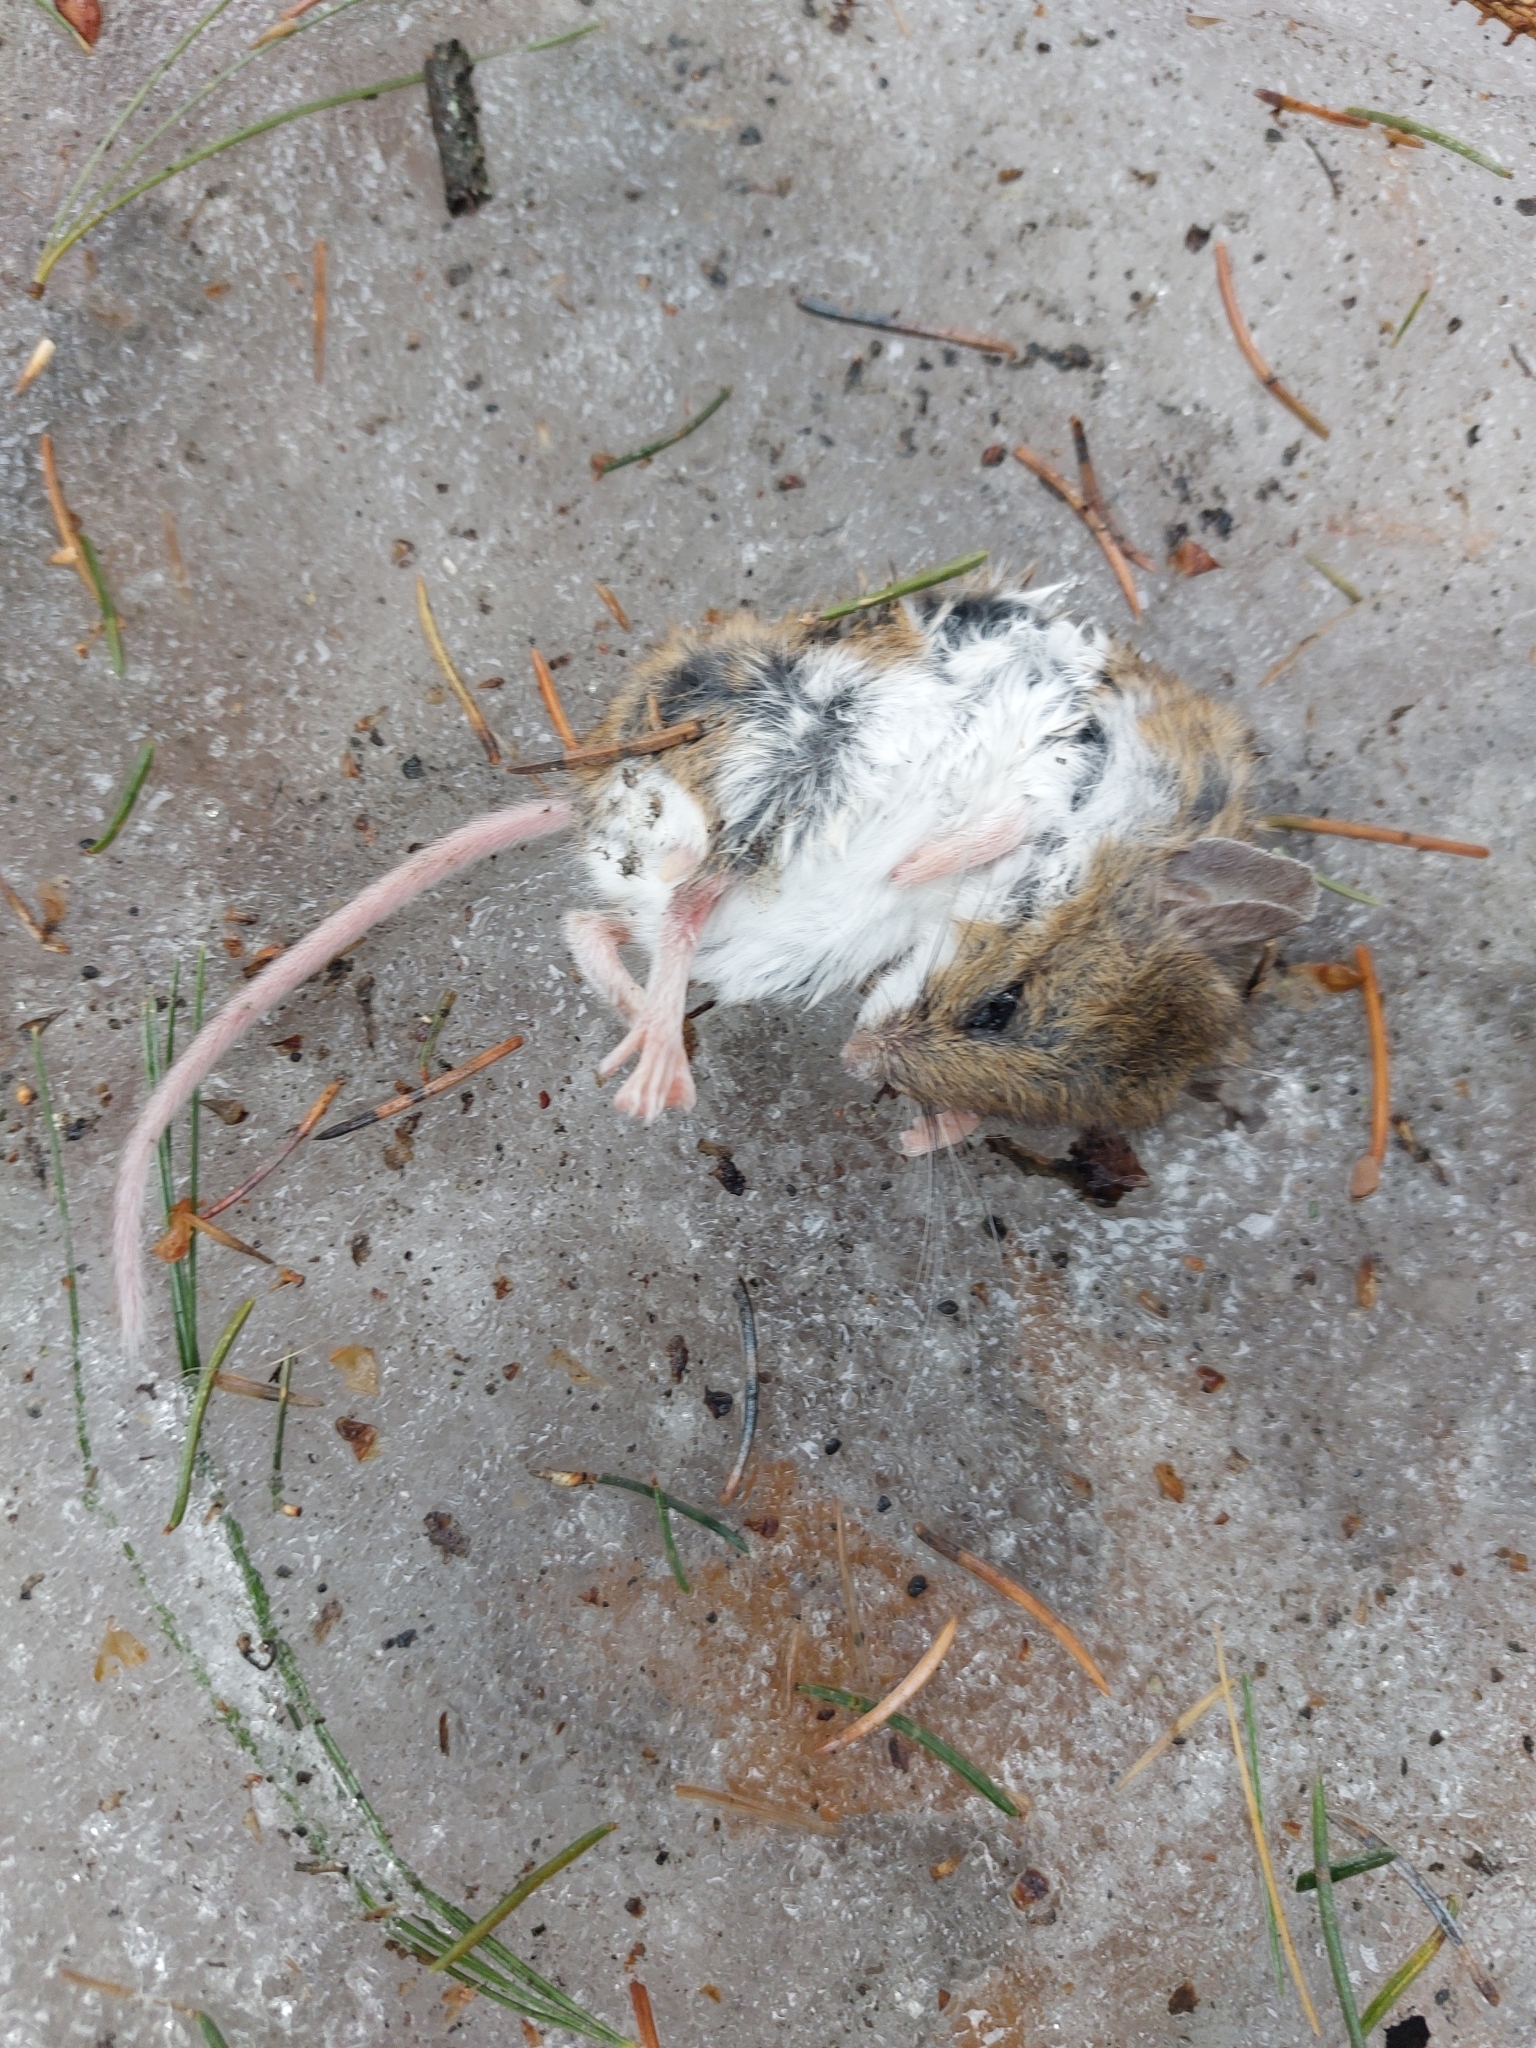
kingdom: Animalia
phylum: Chordata
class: Mammalia
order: Rodentia
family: Cricetidae
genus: Peromyscus
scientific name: Peromyscus
